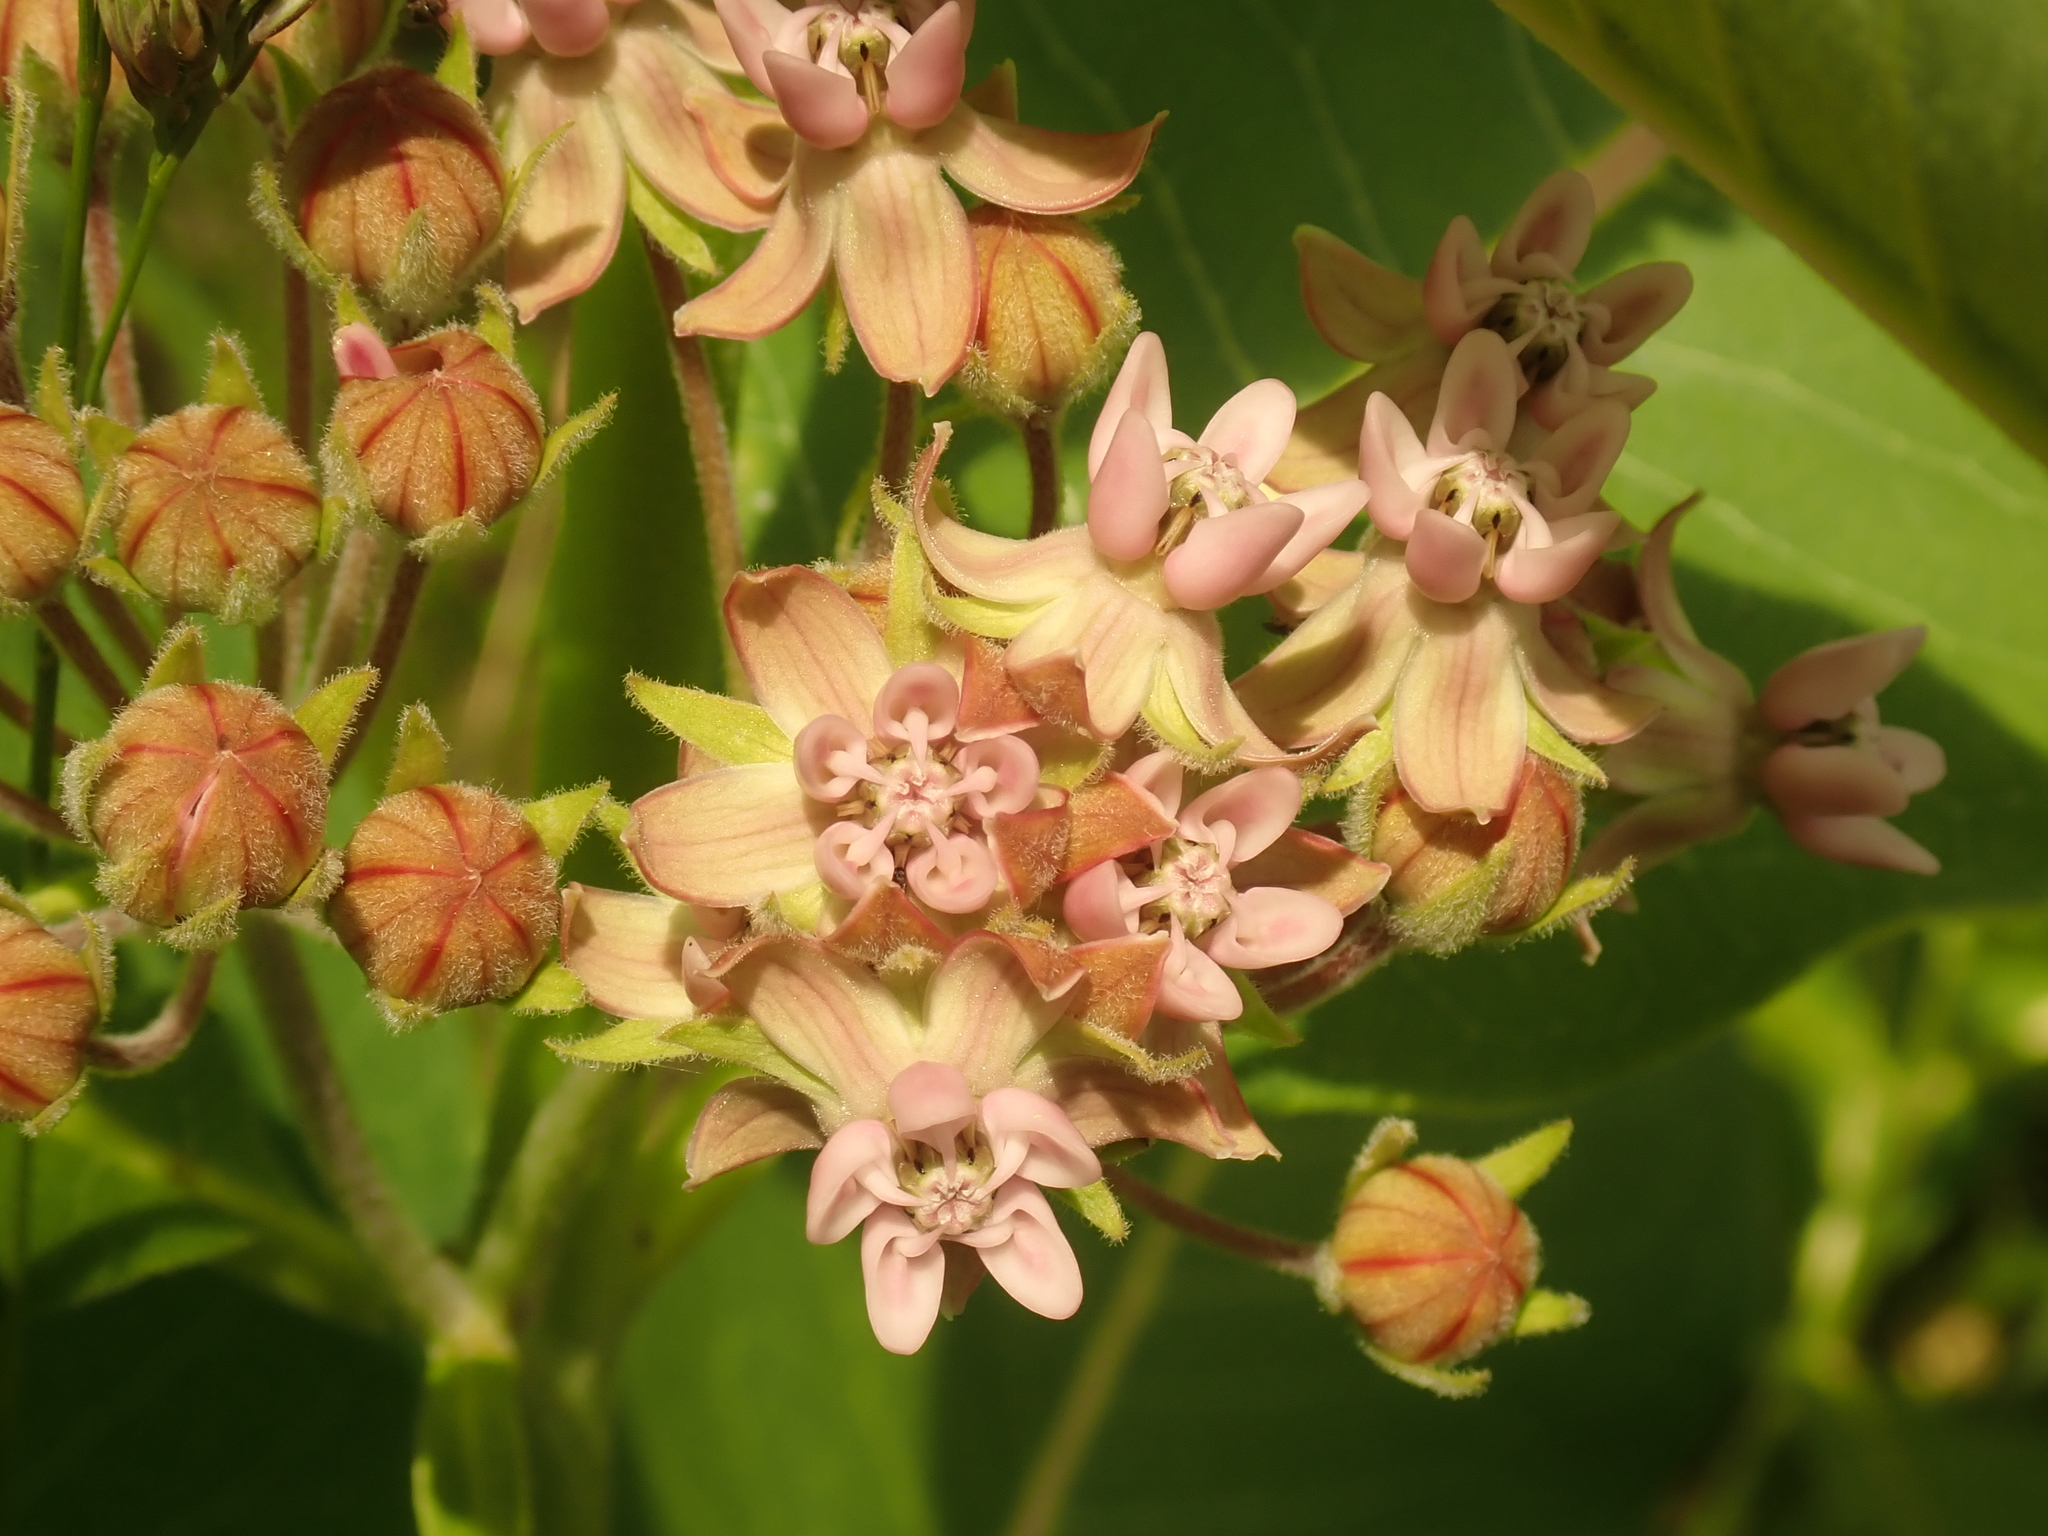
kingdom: Plantae
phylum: Tracheophyta
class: Magnoliopsida
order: Gentianales
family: Apocynaceae
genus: Asclepias
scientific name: Asclepias syriaca
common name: Common milkweed
